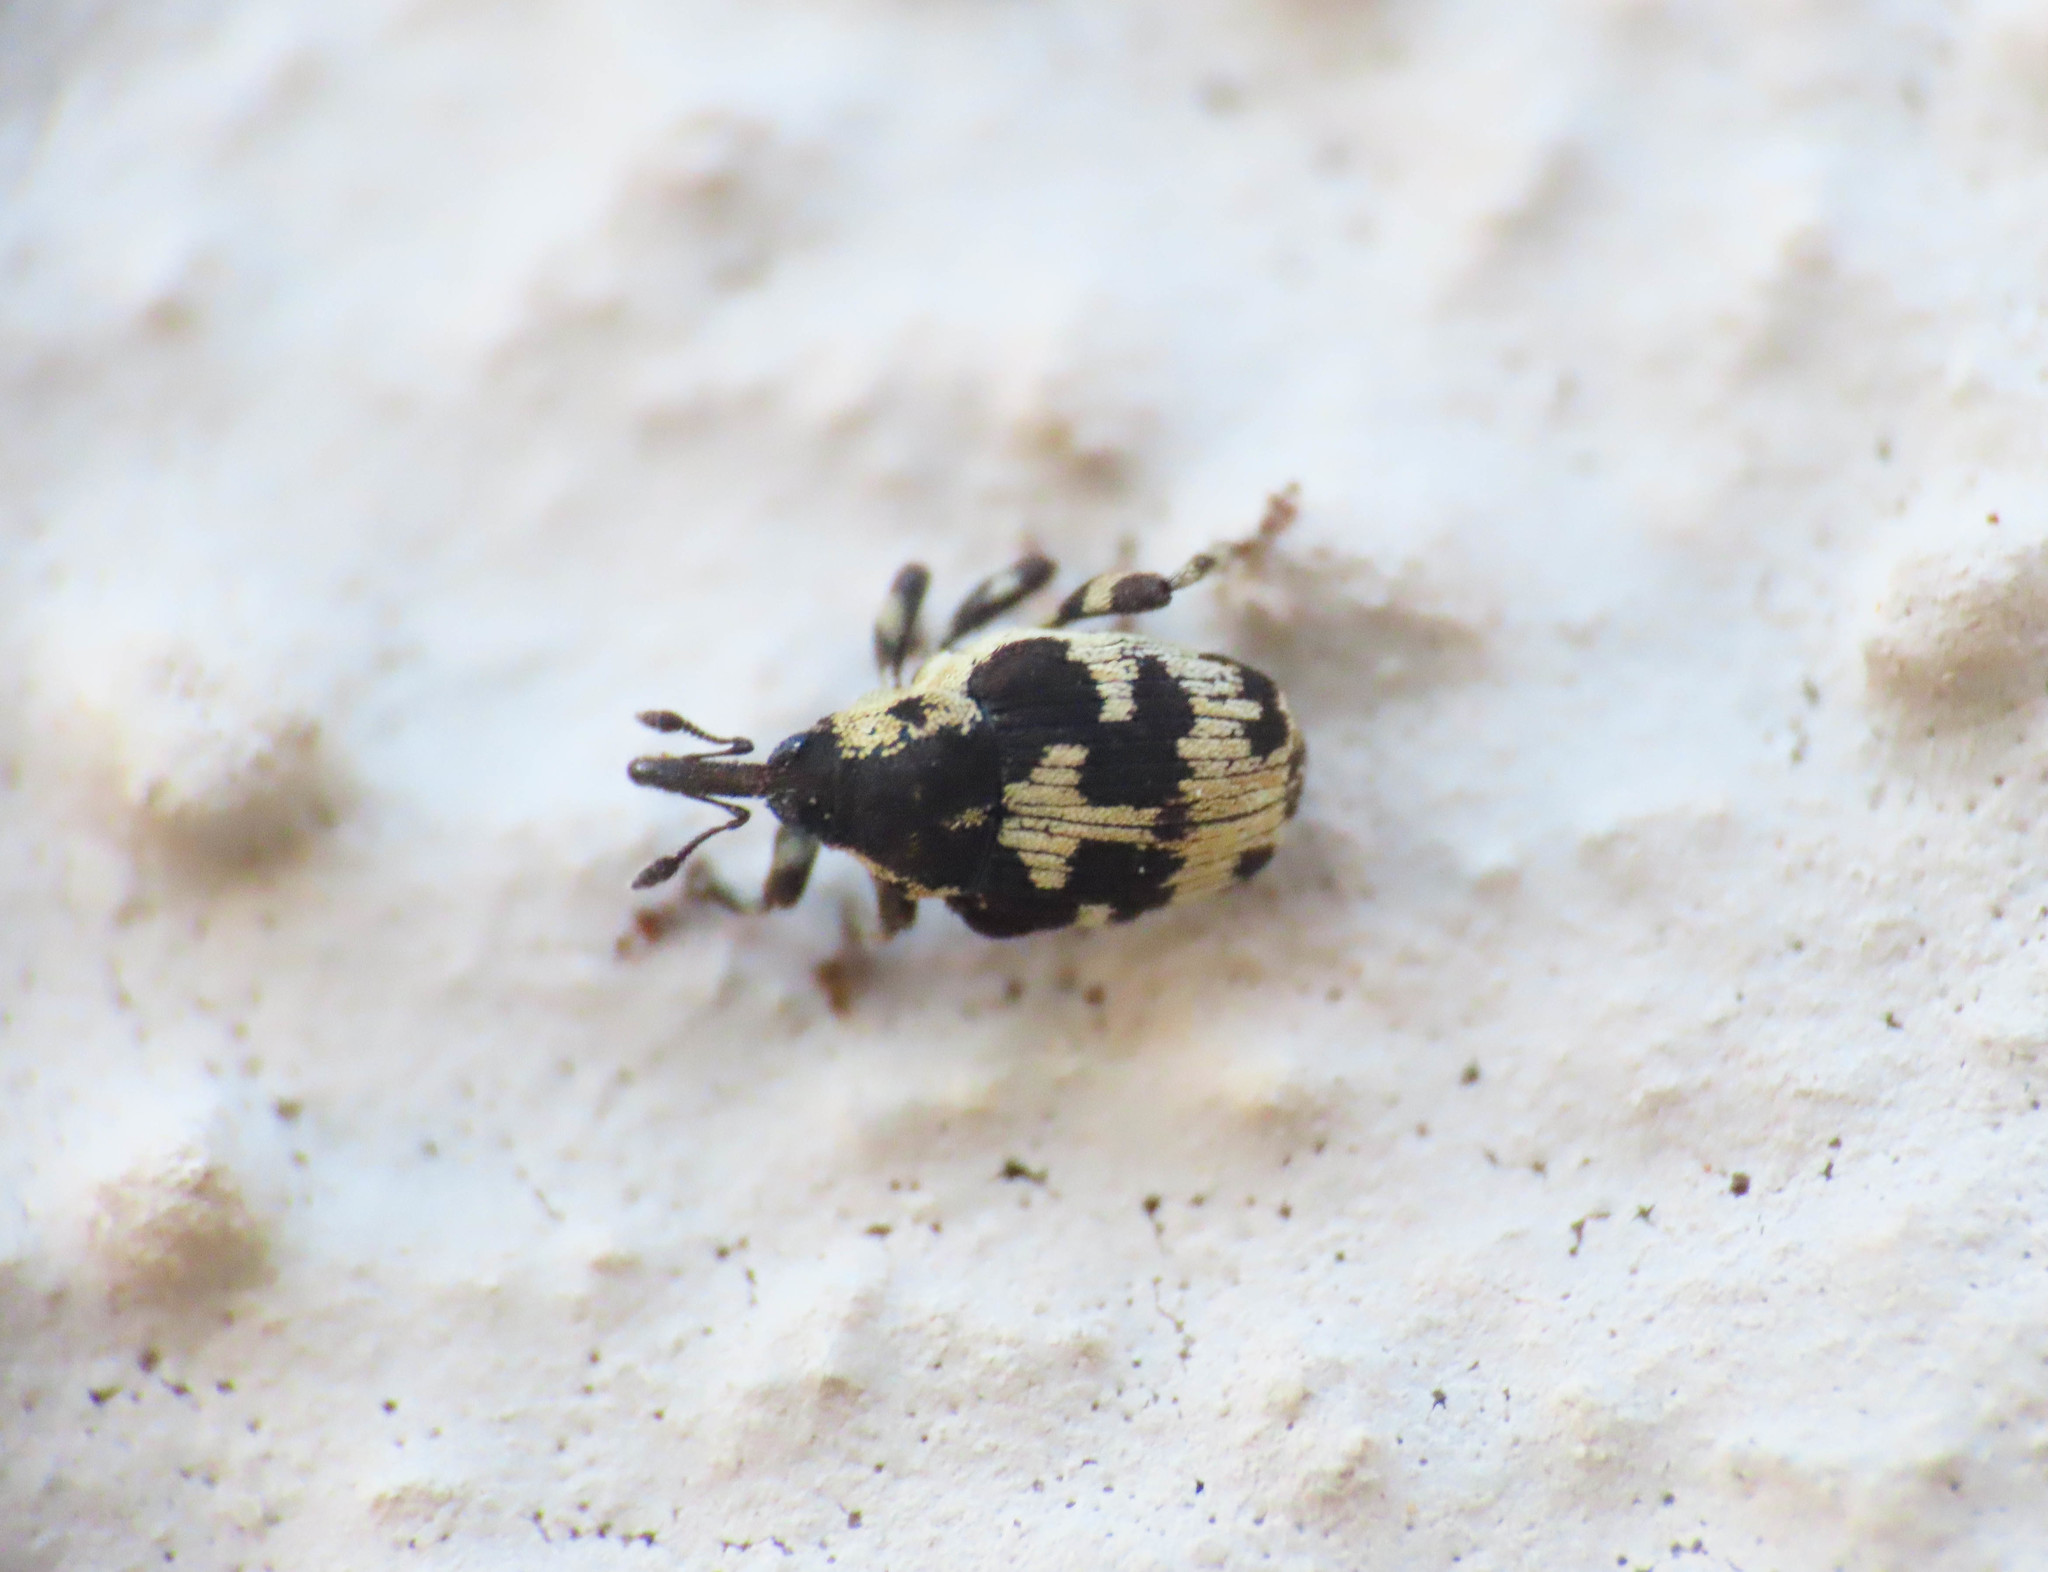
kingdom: Animalia
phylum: Arthropoda
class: Insecta
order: Coleoptera
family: Curculionidae
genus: Thamiocolus
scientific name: Thamiocolus sinapis
